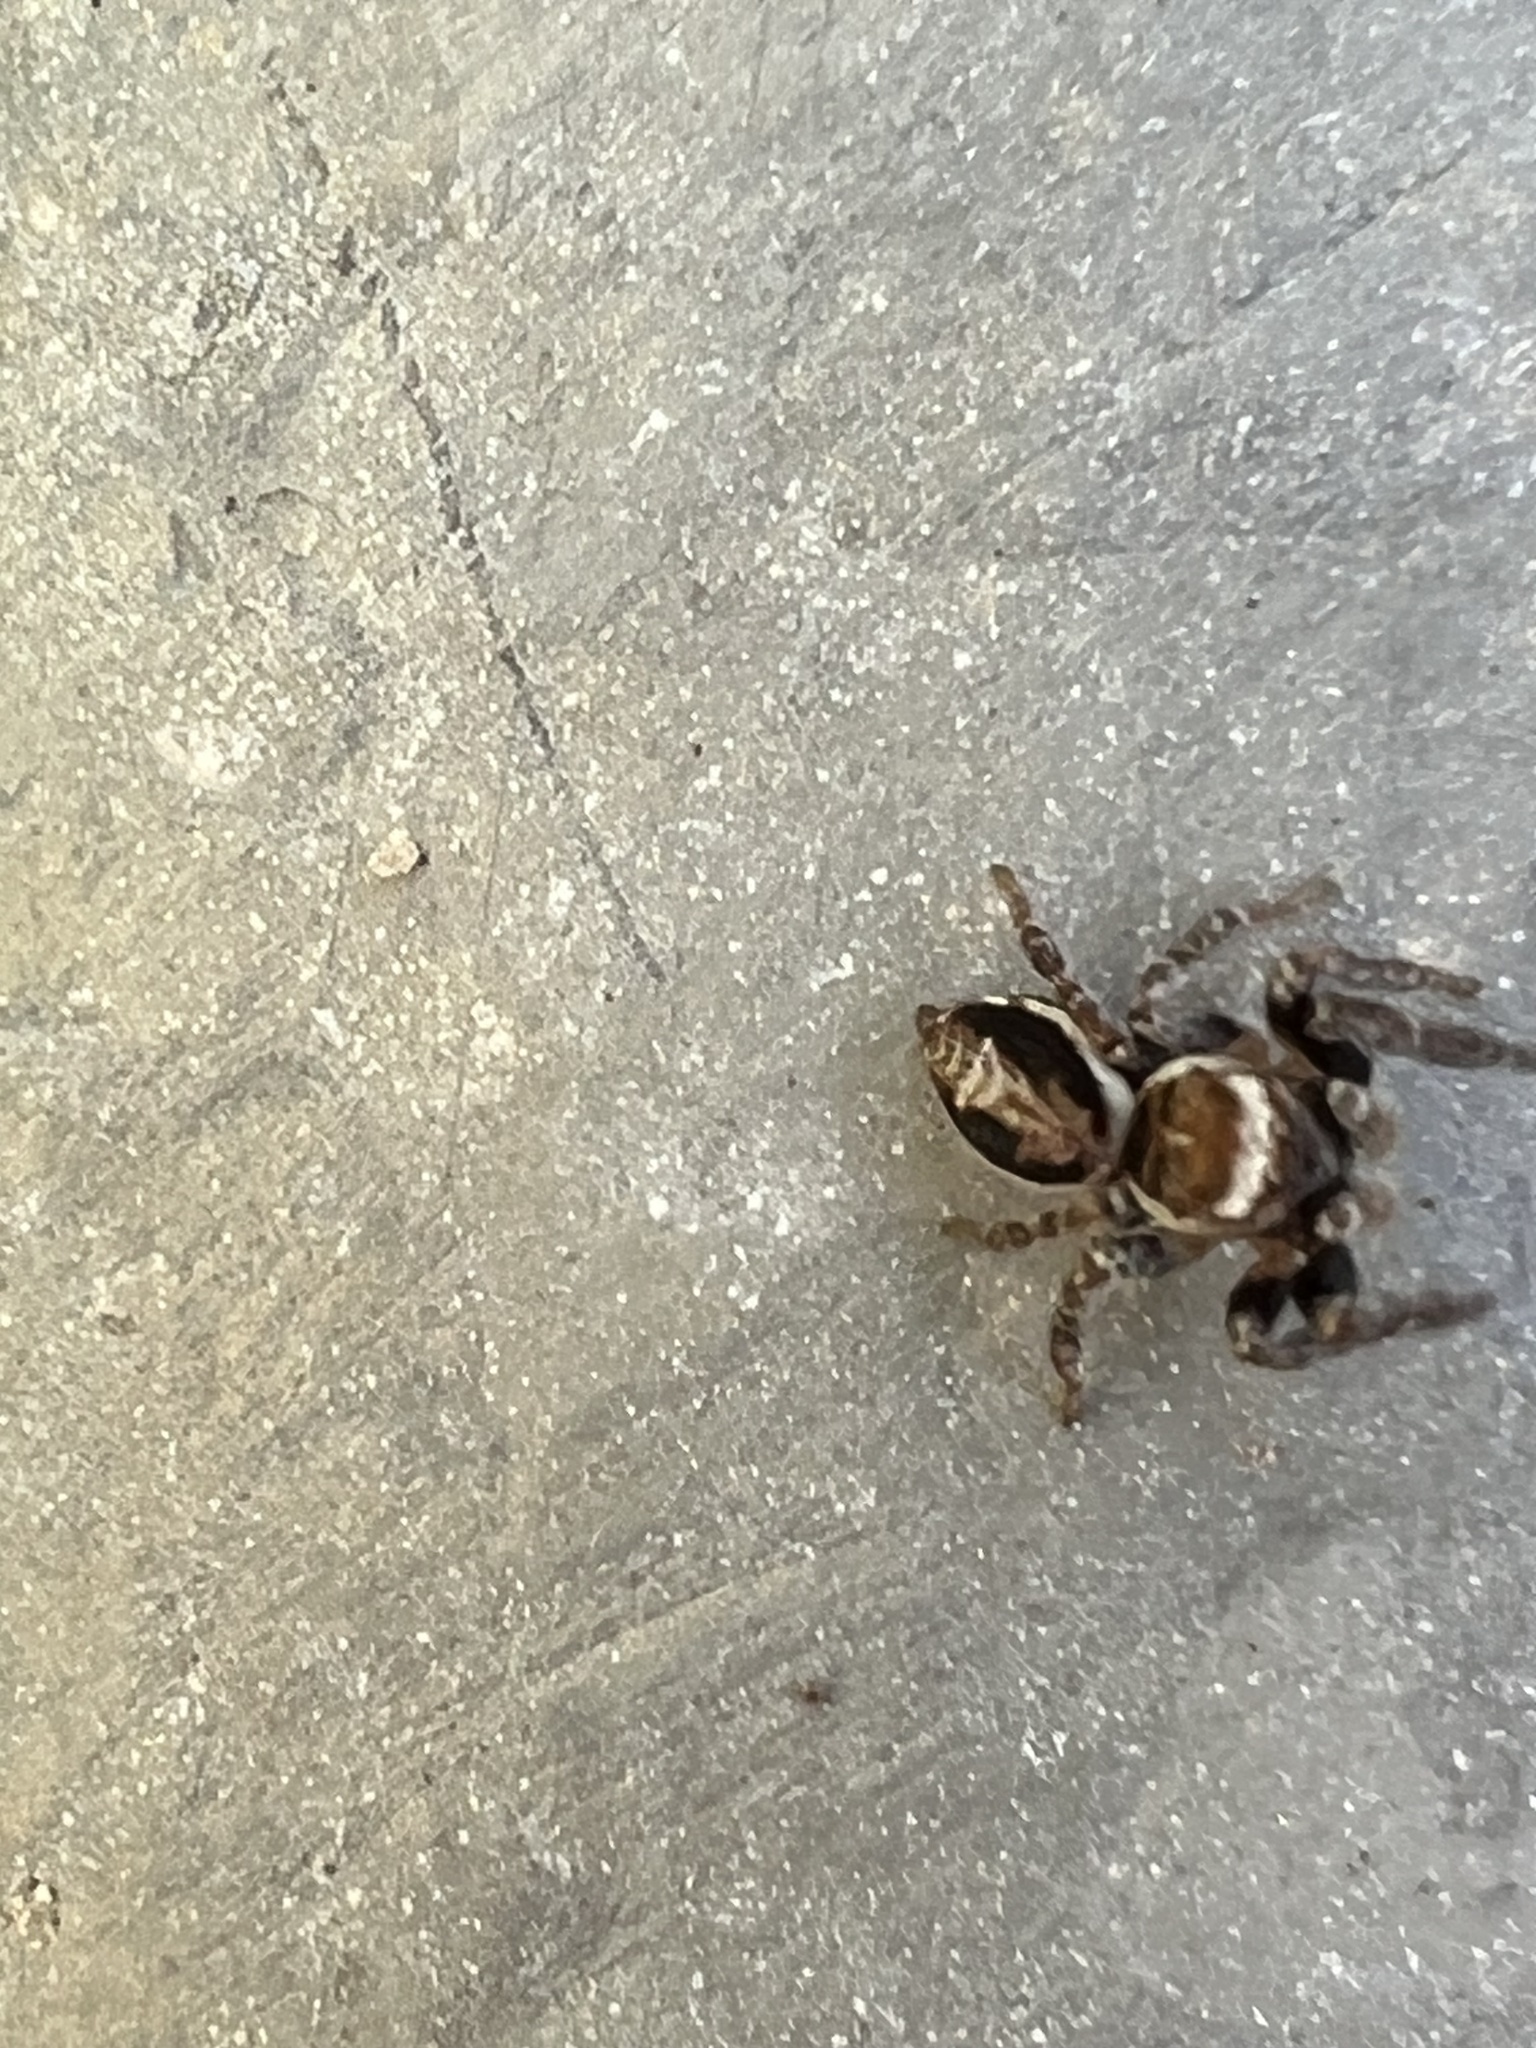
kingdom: Animalia
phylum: Arthropoda
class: Arachnida
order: Araneae
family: Salticidae
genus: Evarcha
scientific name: Evarcha proszynskii
